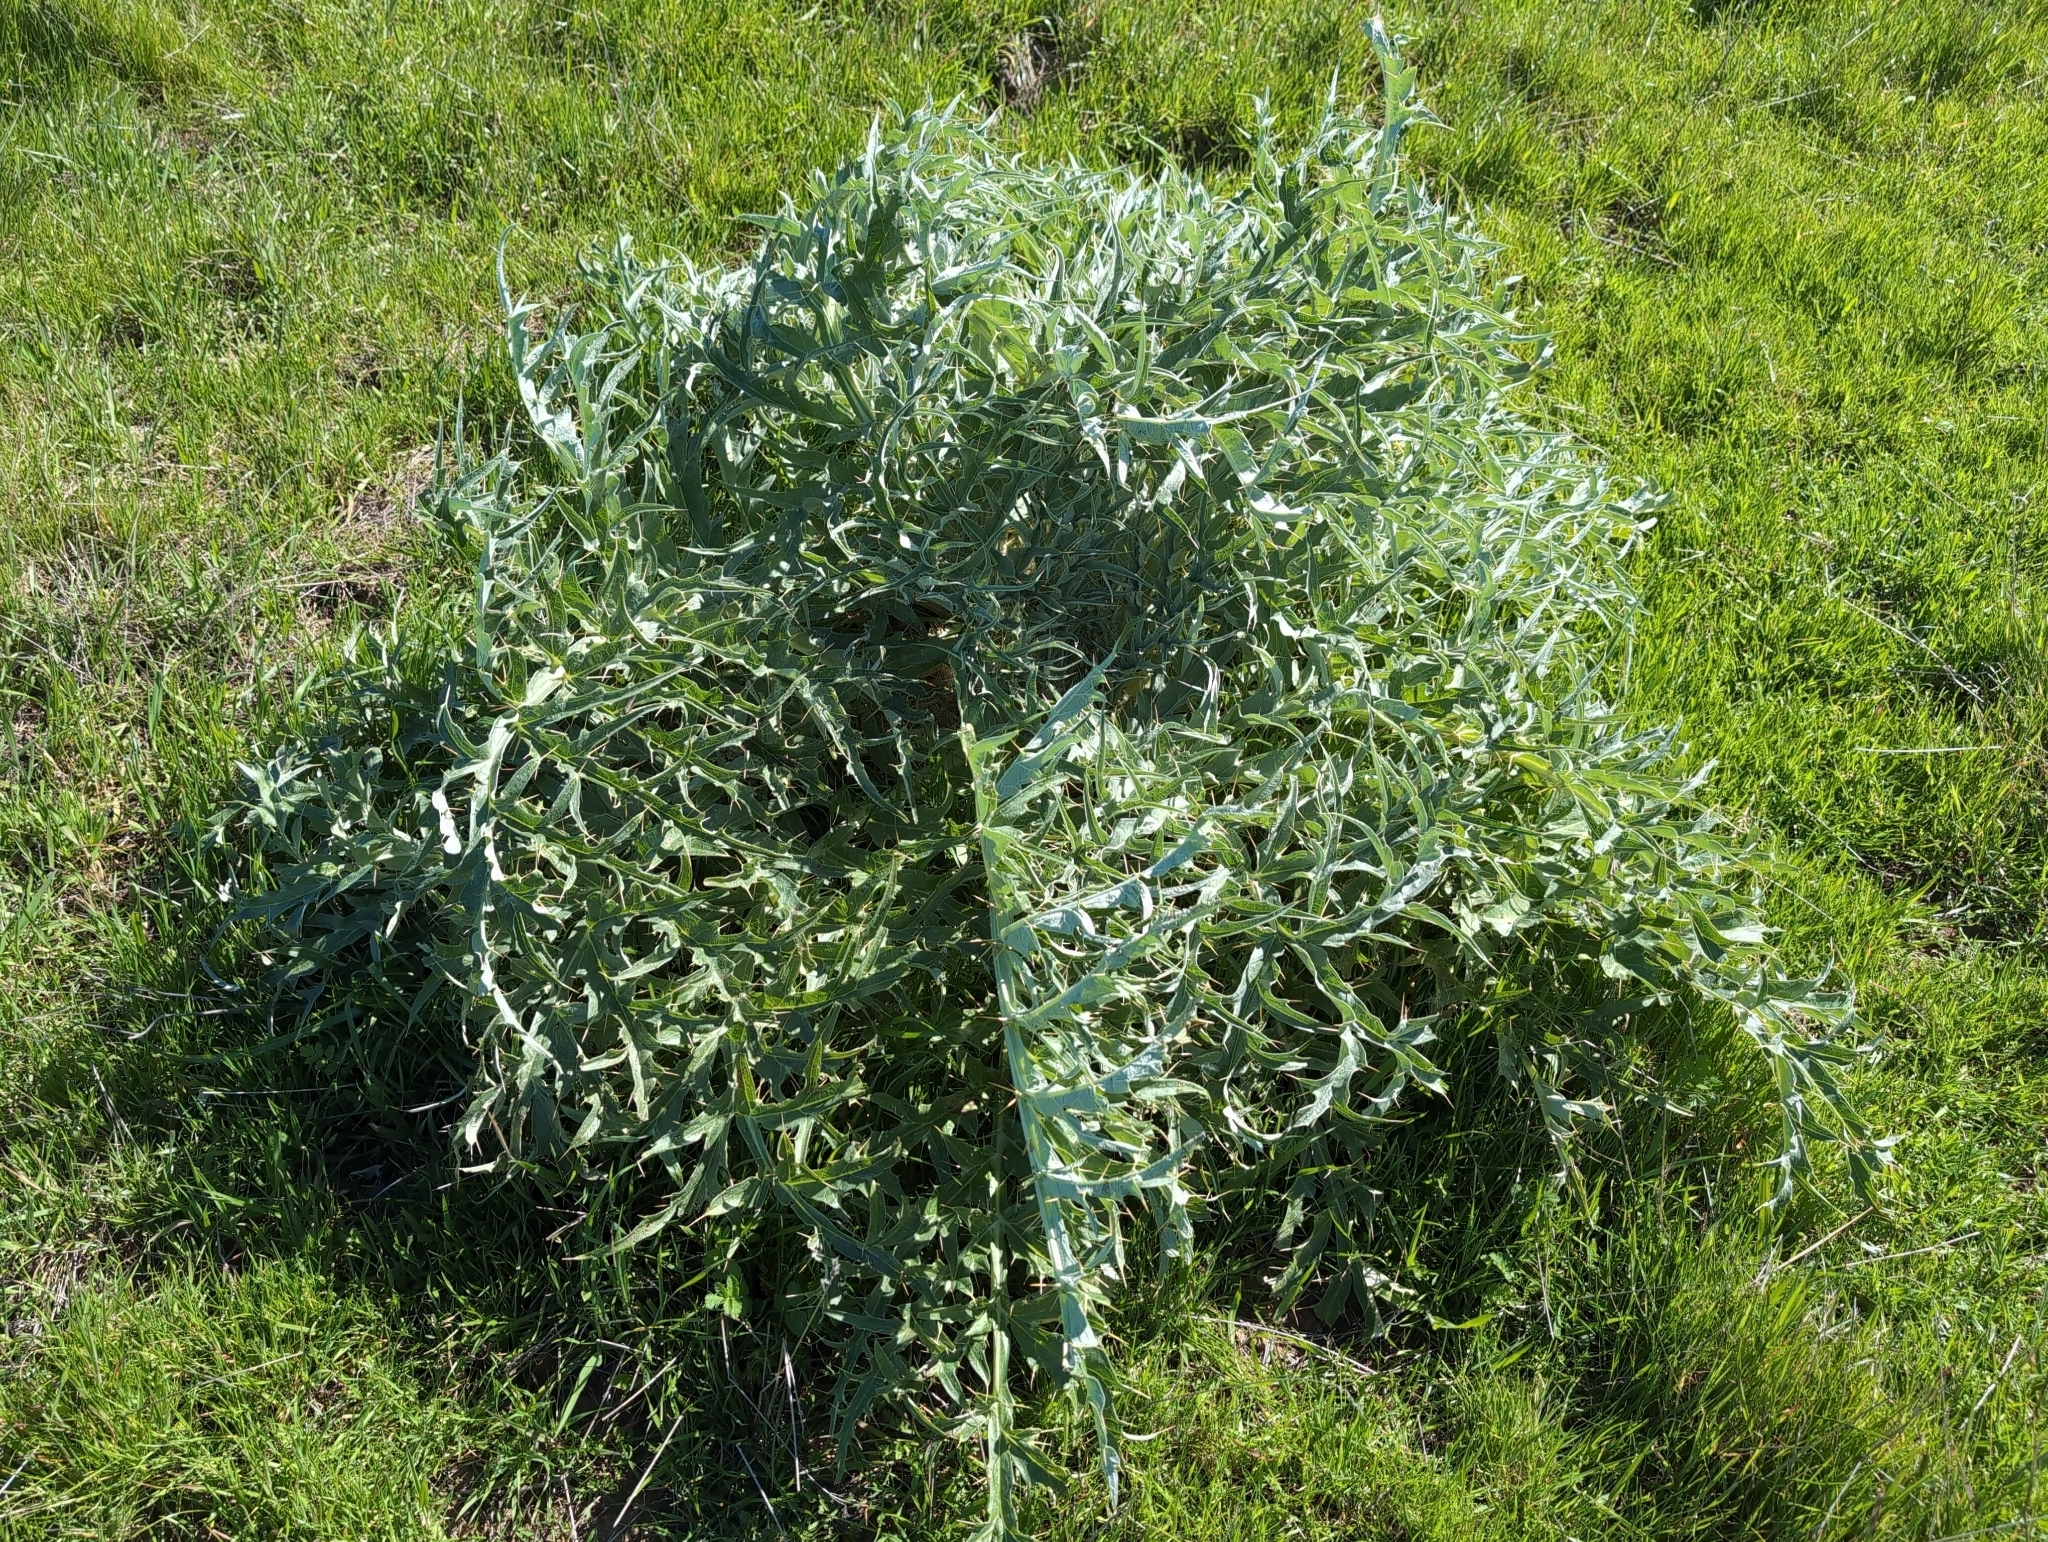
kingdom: Plantae
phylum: Tracheophyta
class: Magnoliopsida
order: Asterales
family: Asteraceae
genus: Cynara
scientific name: Cynara cardunculus
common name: Globe artichoke
